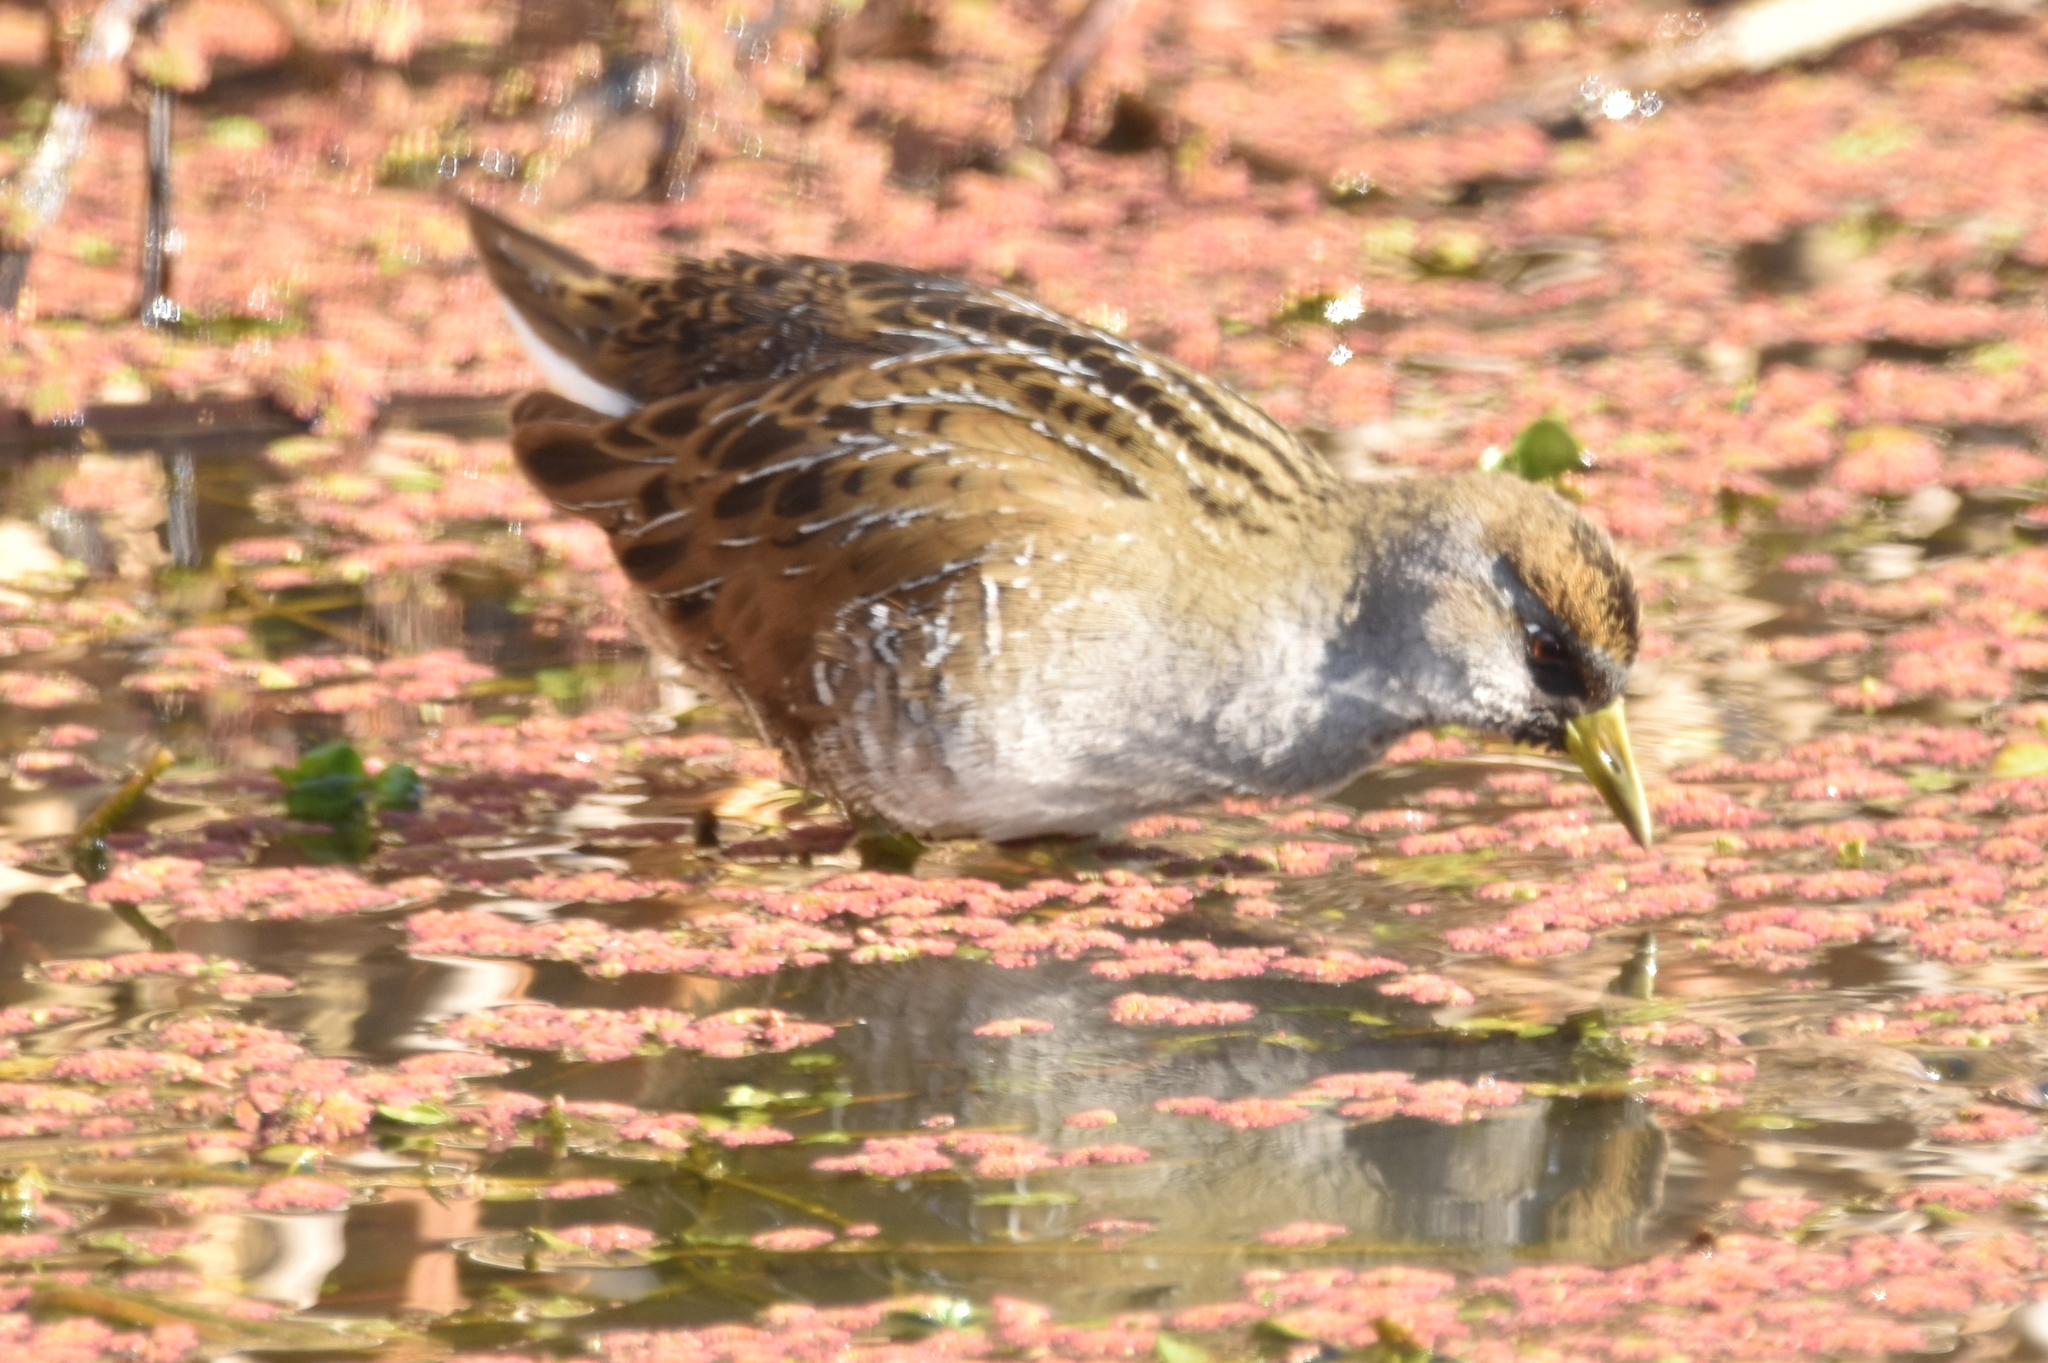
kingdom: Animalia
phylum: Chordata
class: Aves
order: Gruiformes
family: Rallidae
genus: Porzana
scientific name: Porzana carolina
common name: Sora
